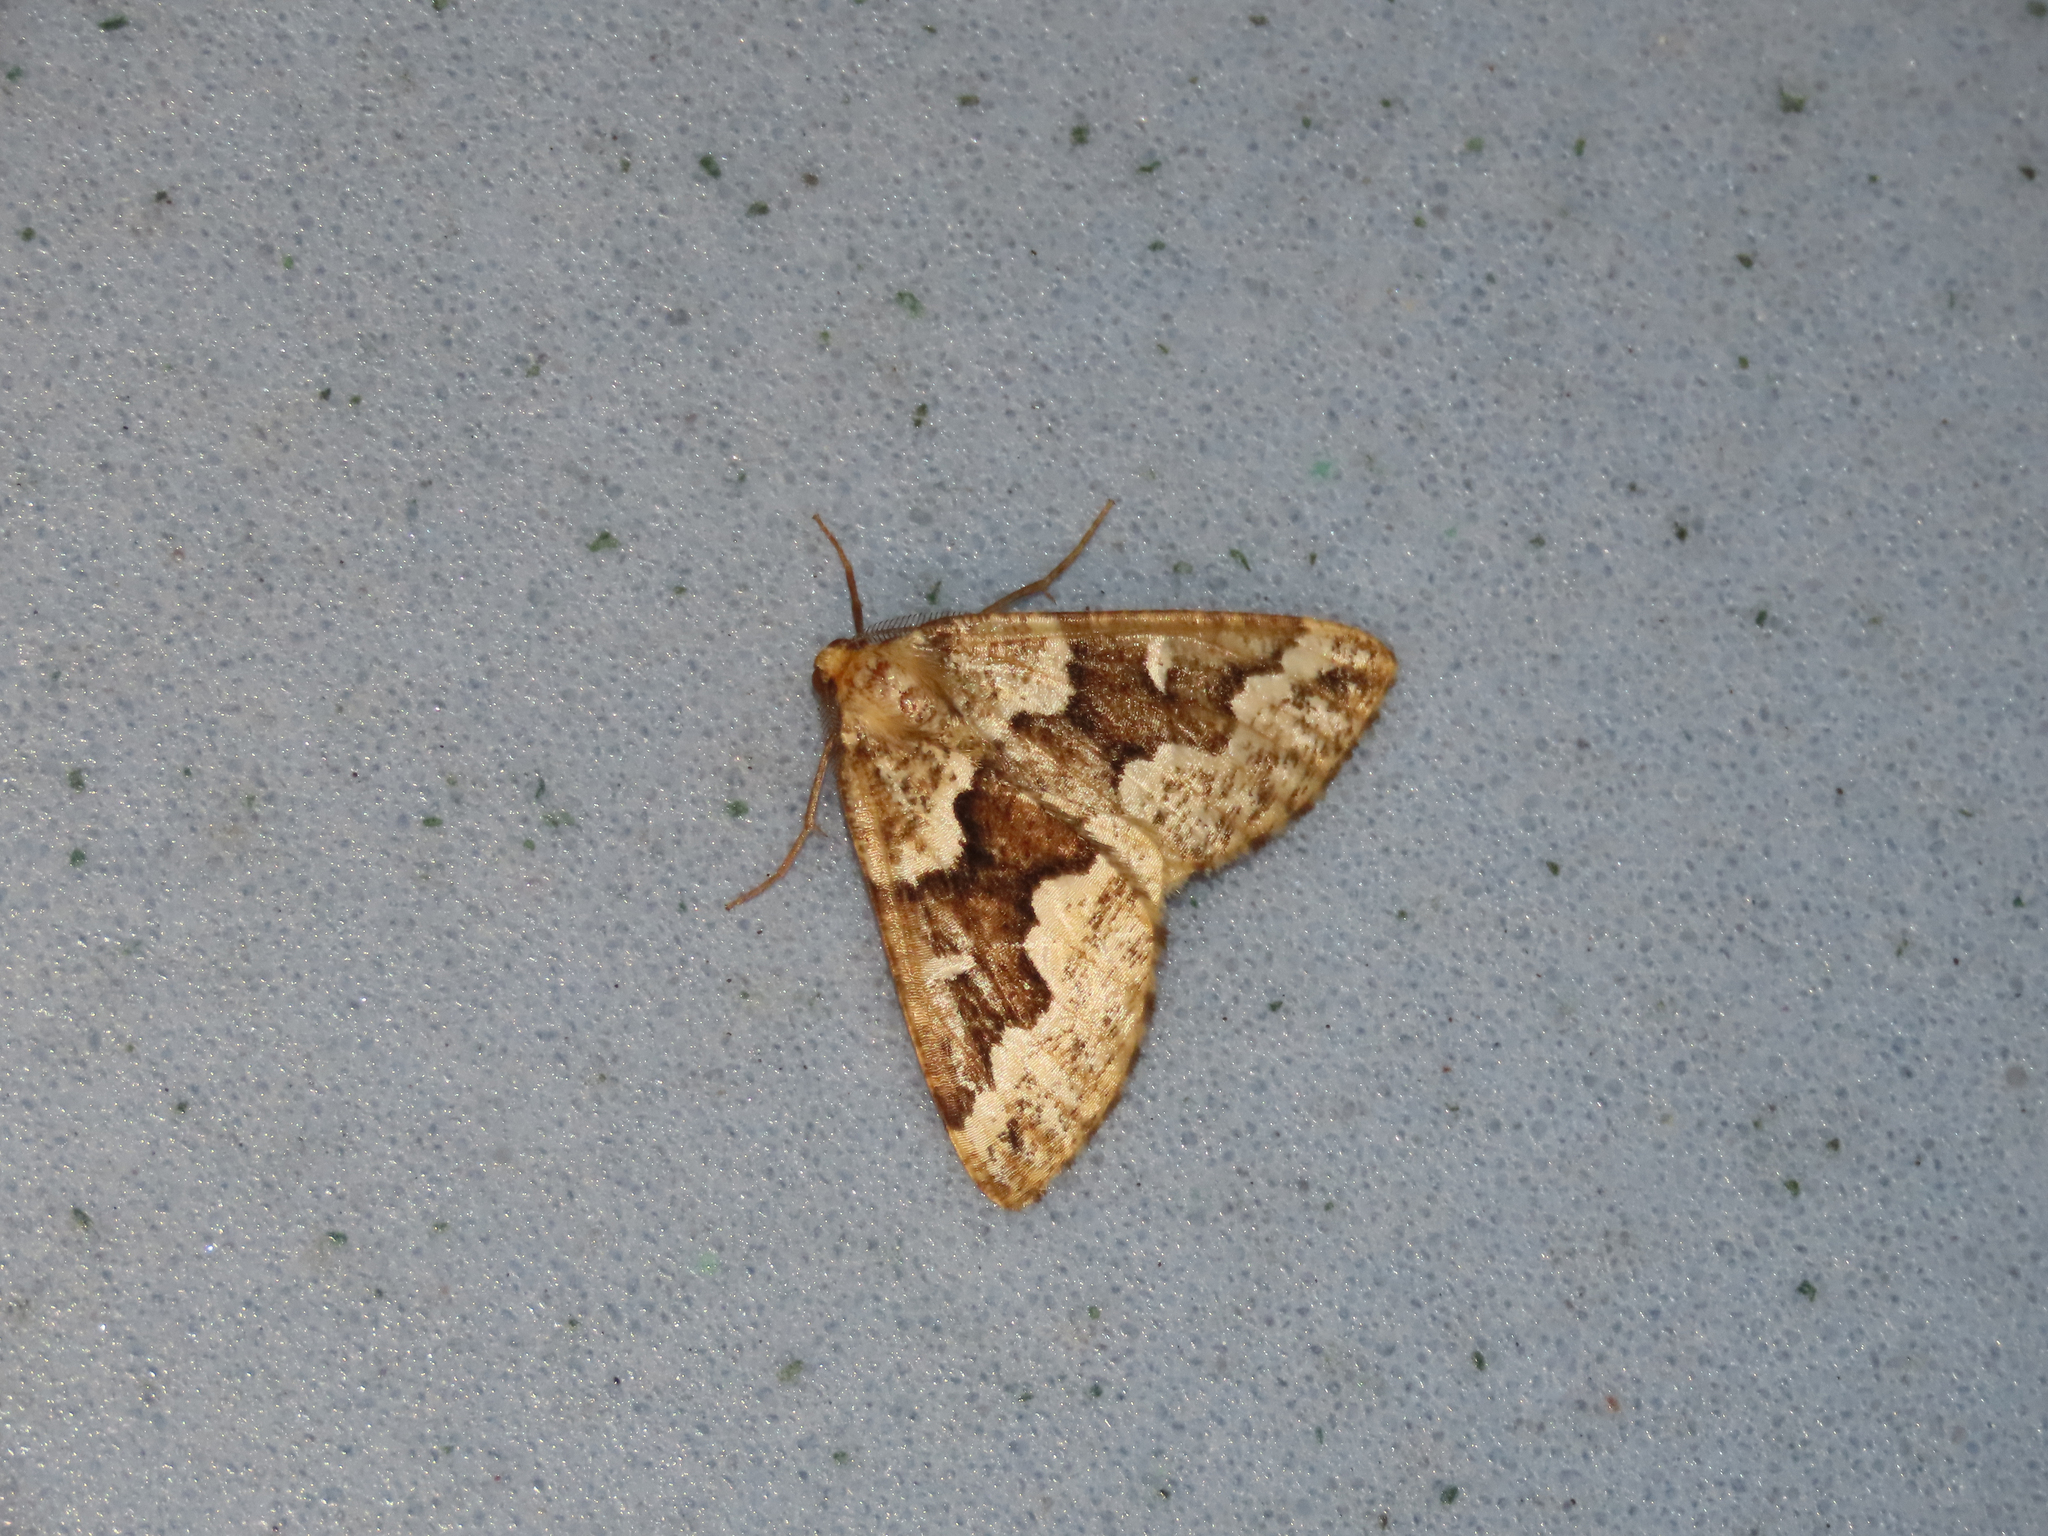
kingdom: Animalia
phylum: Arthropoda
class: Insecta
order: Lepidoptera
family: Geometridae
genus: Caripeta
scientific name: Caripeta divisata
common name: Gray spruce looper
